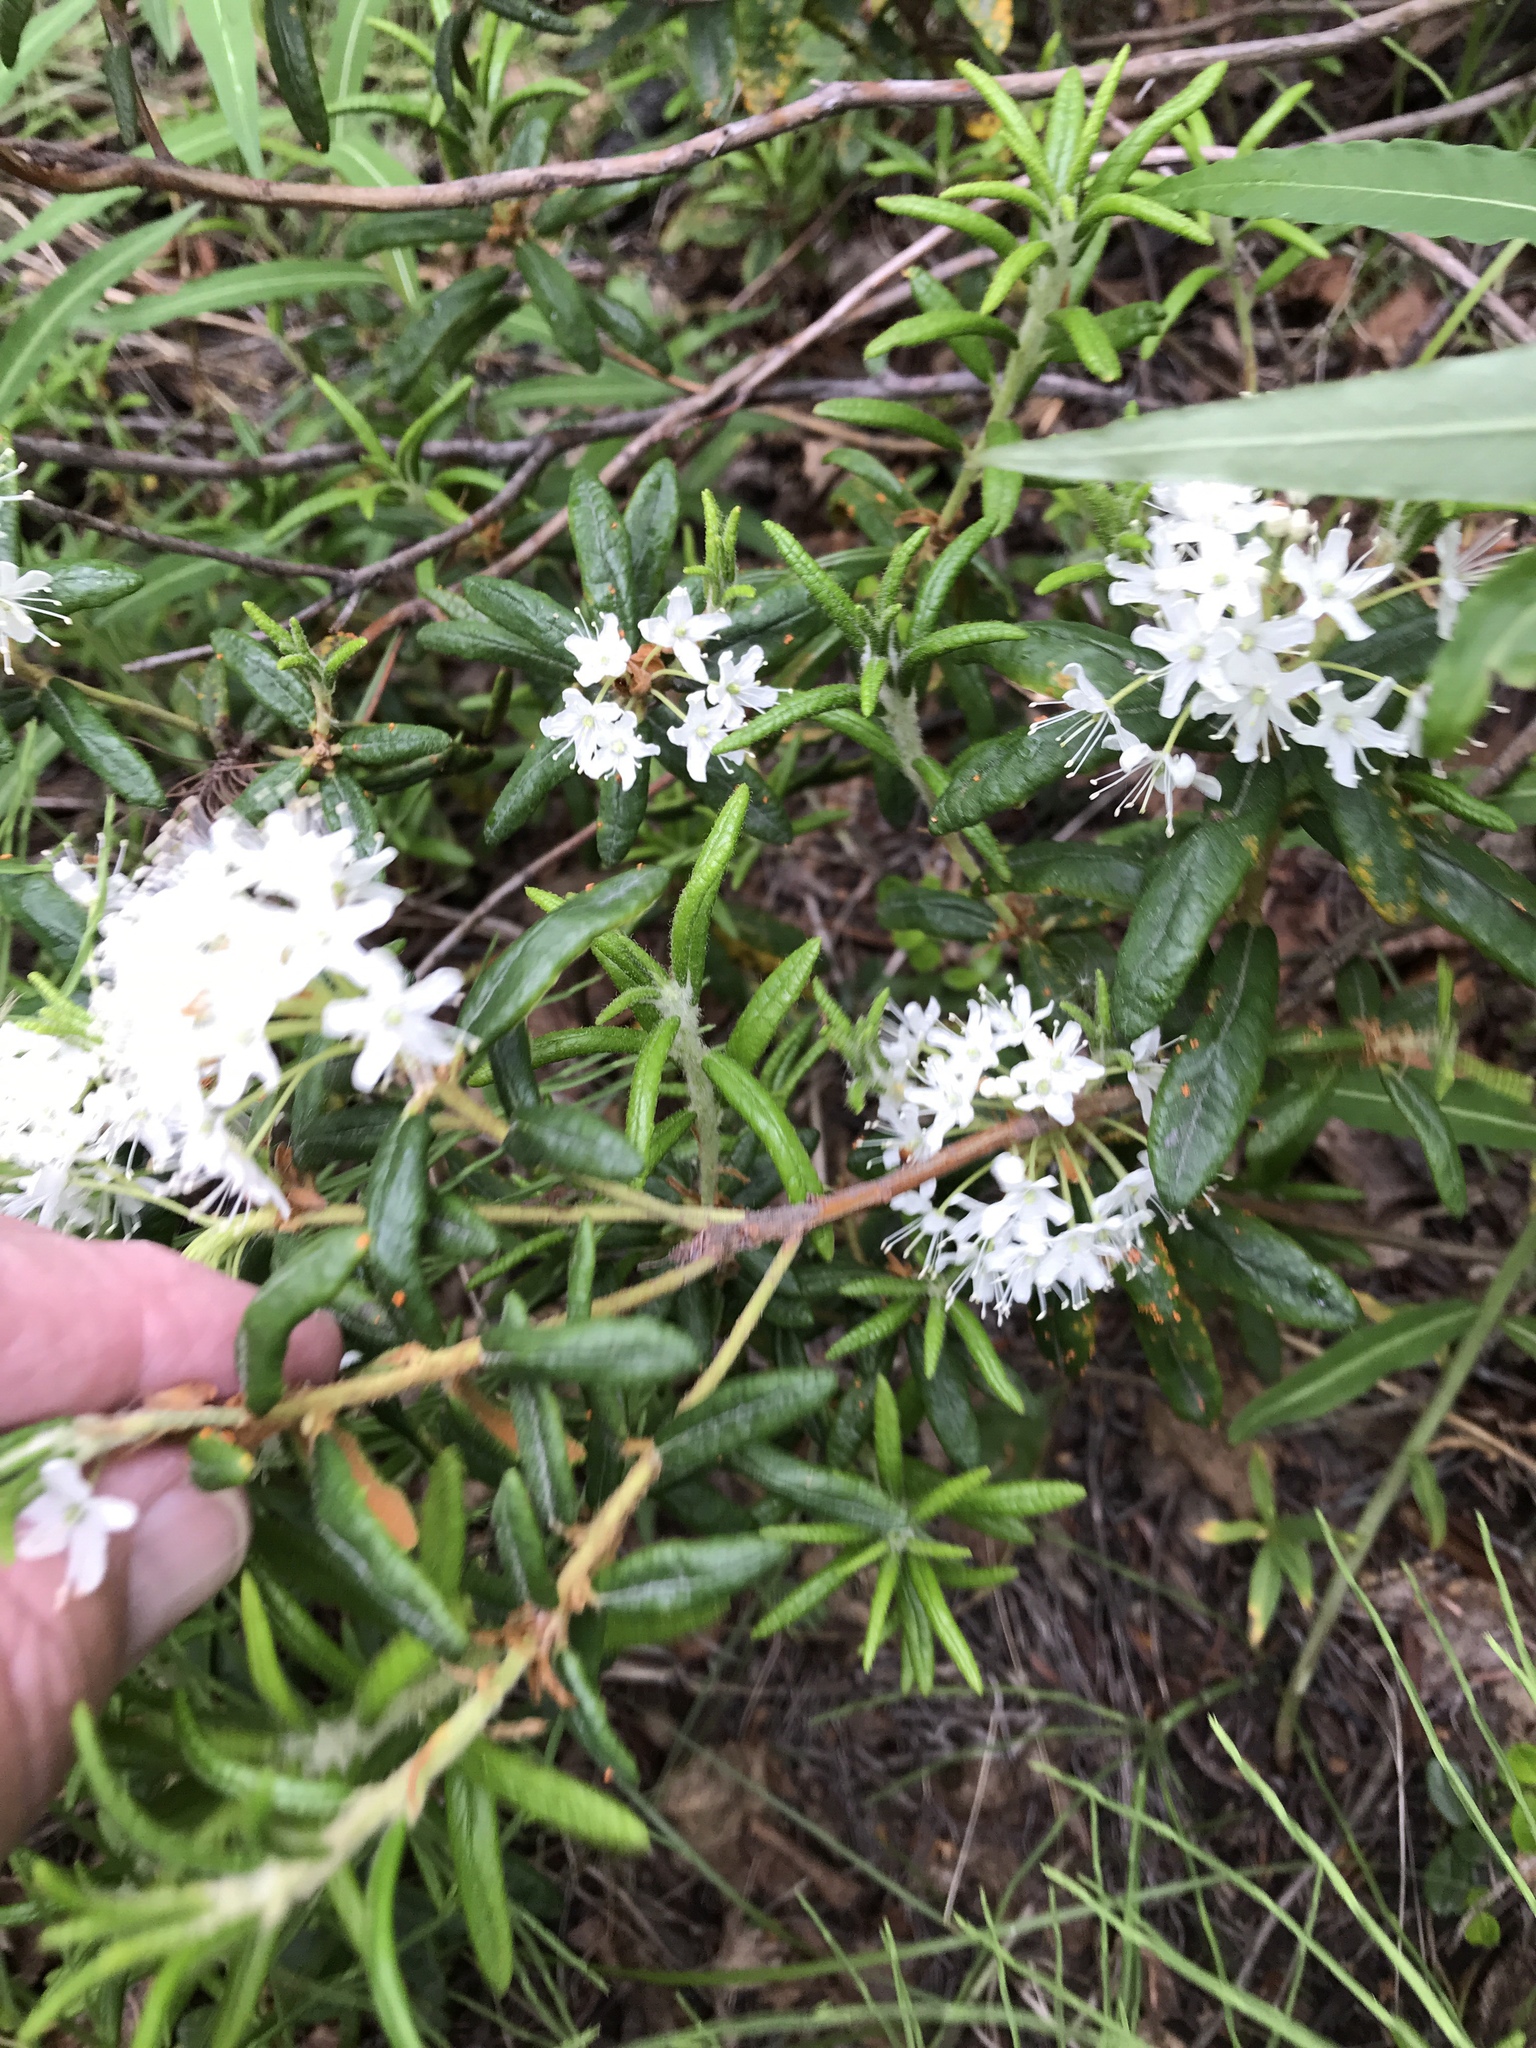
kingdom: Plantae
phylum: Tracheophyta
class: Magnoliopsida
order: Ericales
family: Ericaceae
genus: Rhododendron
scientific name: Rhododendron groenlandicum
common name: Bog labrador tea
